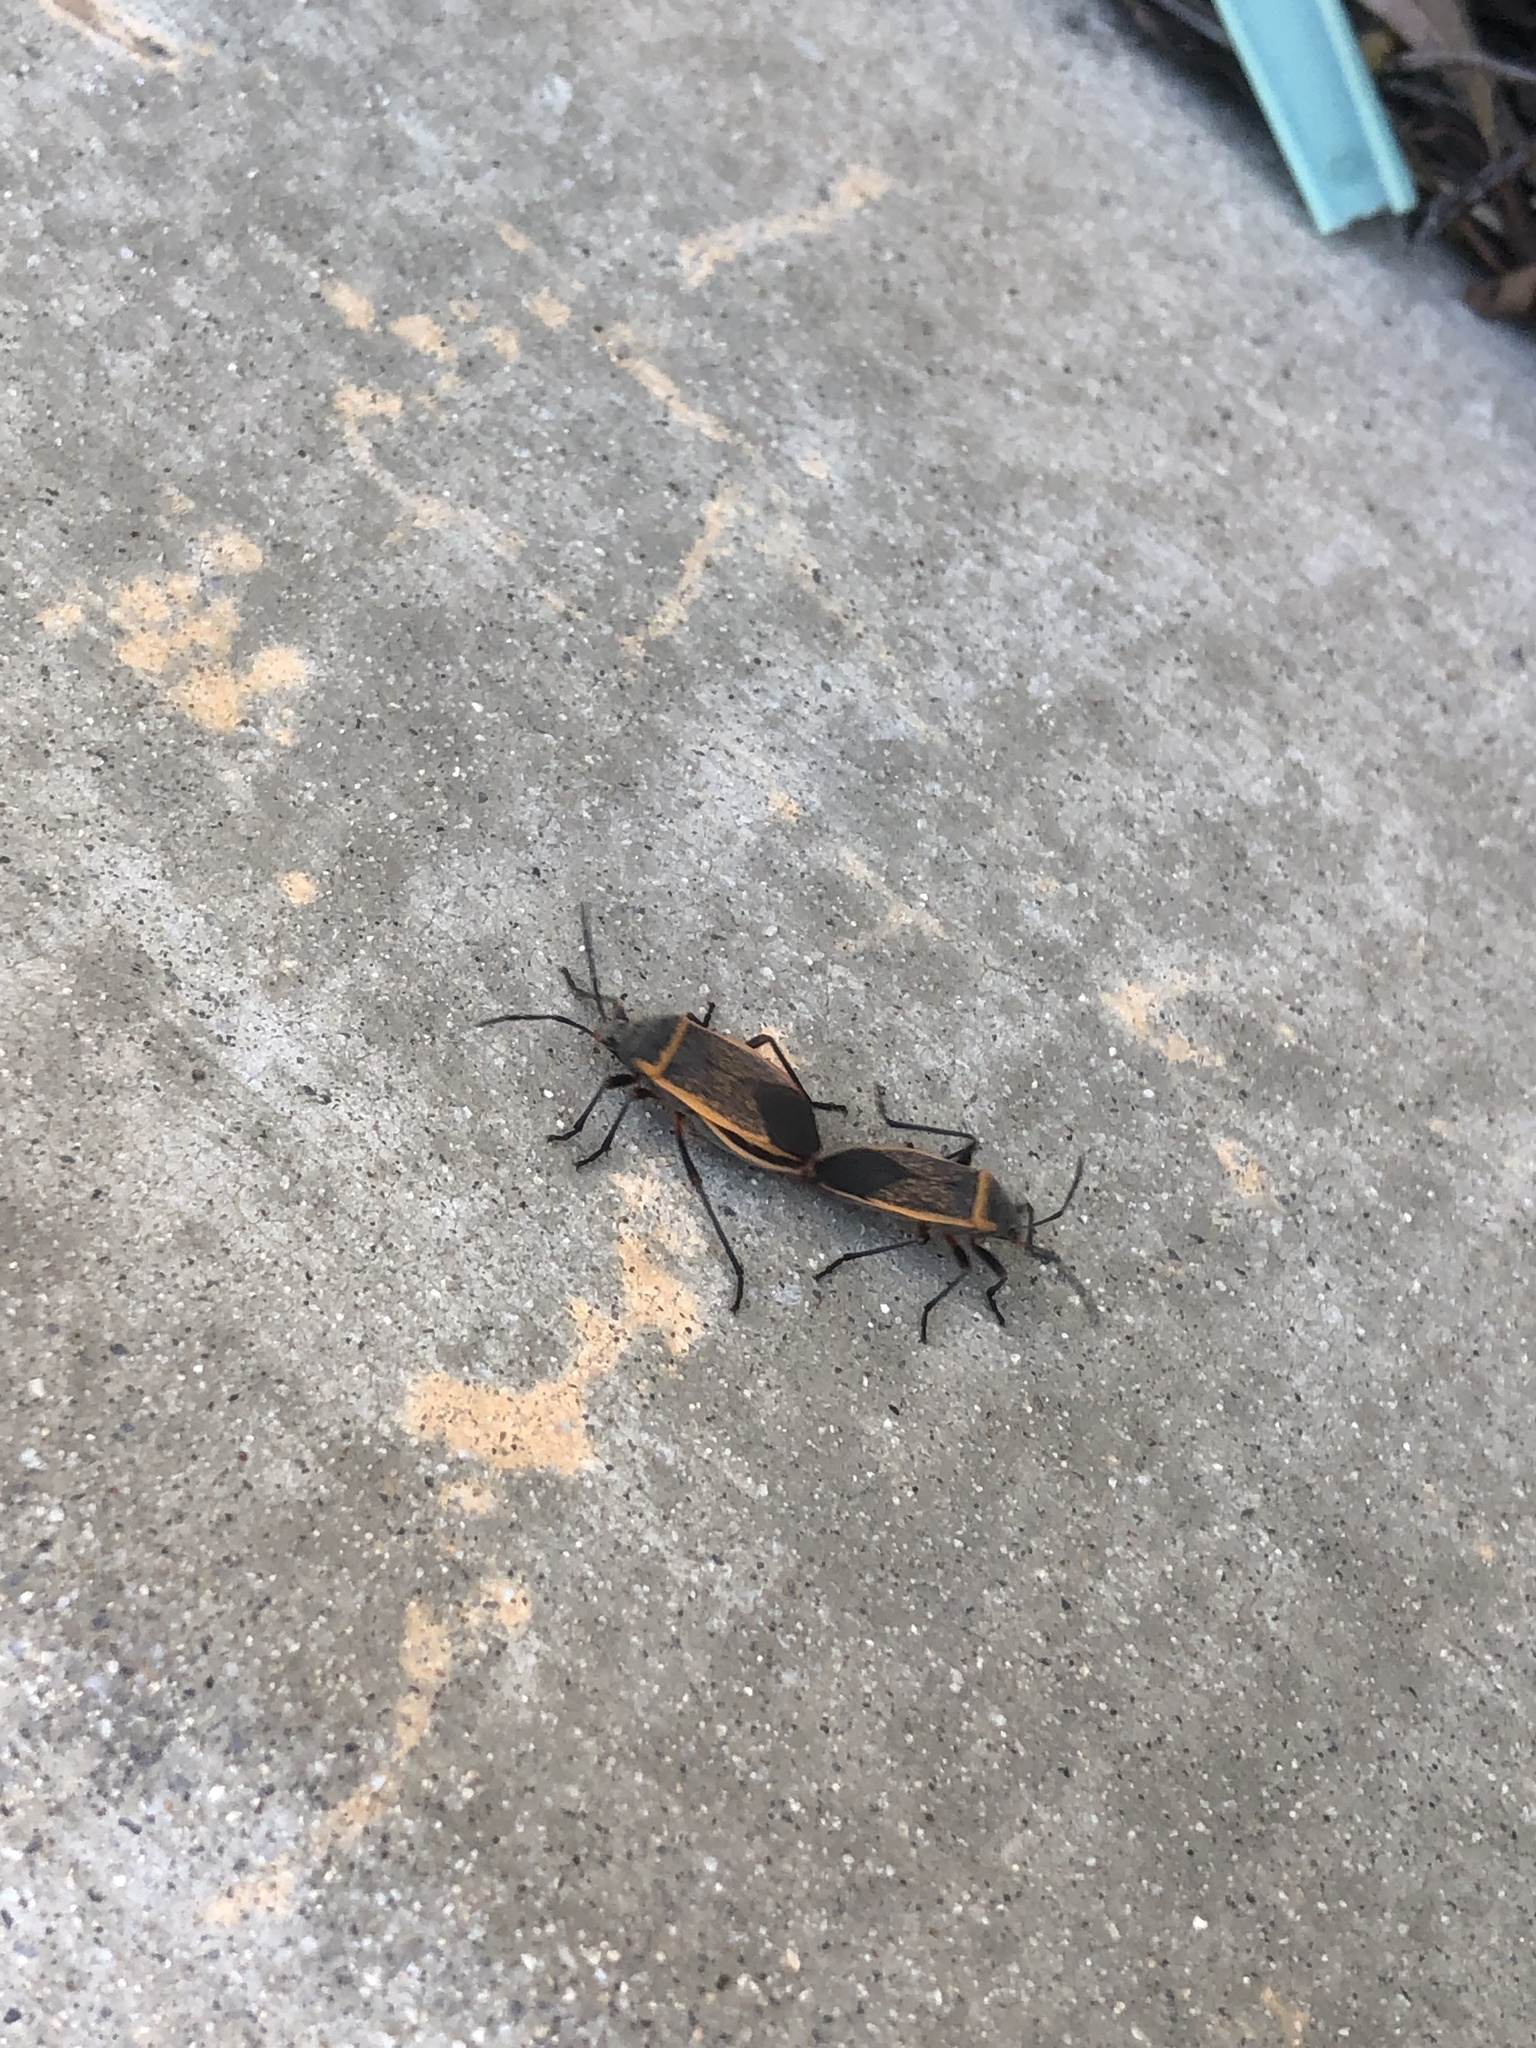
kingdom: Animalia
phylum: Arthropoda
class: Insecta
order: Hemiptera
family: Largidae
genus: Largus
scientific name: Largus californicus
